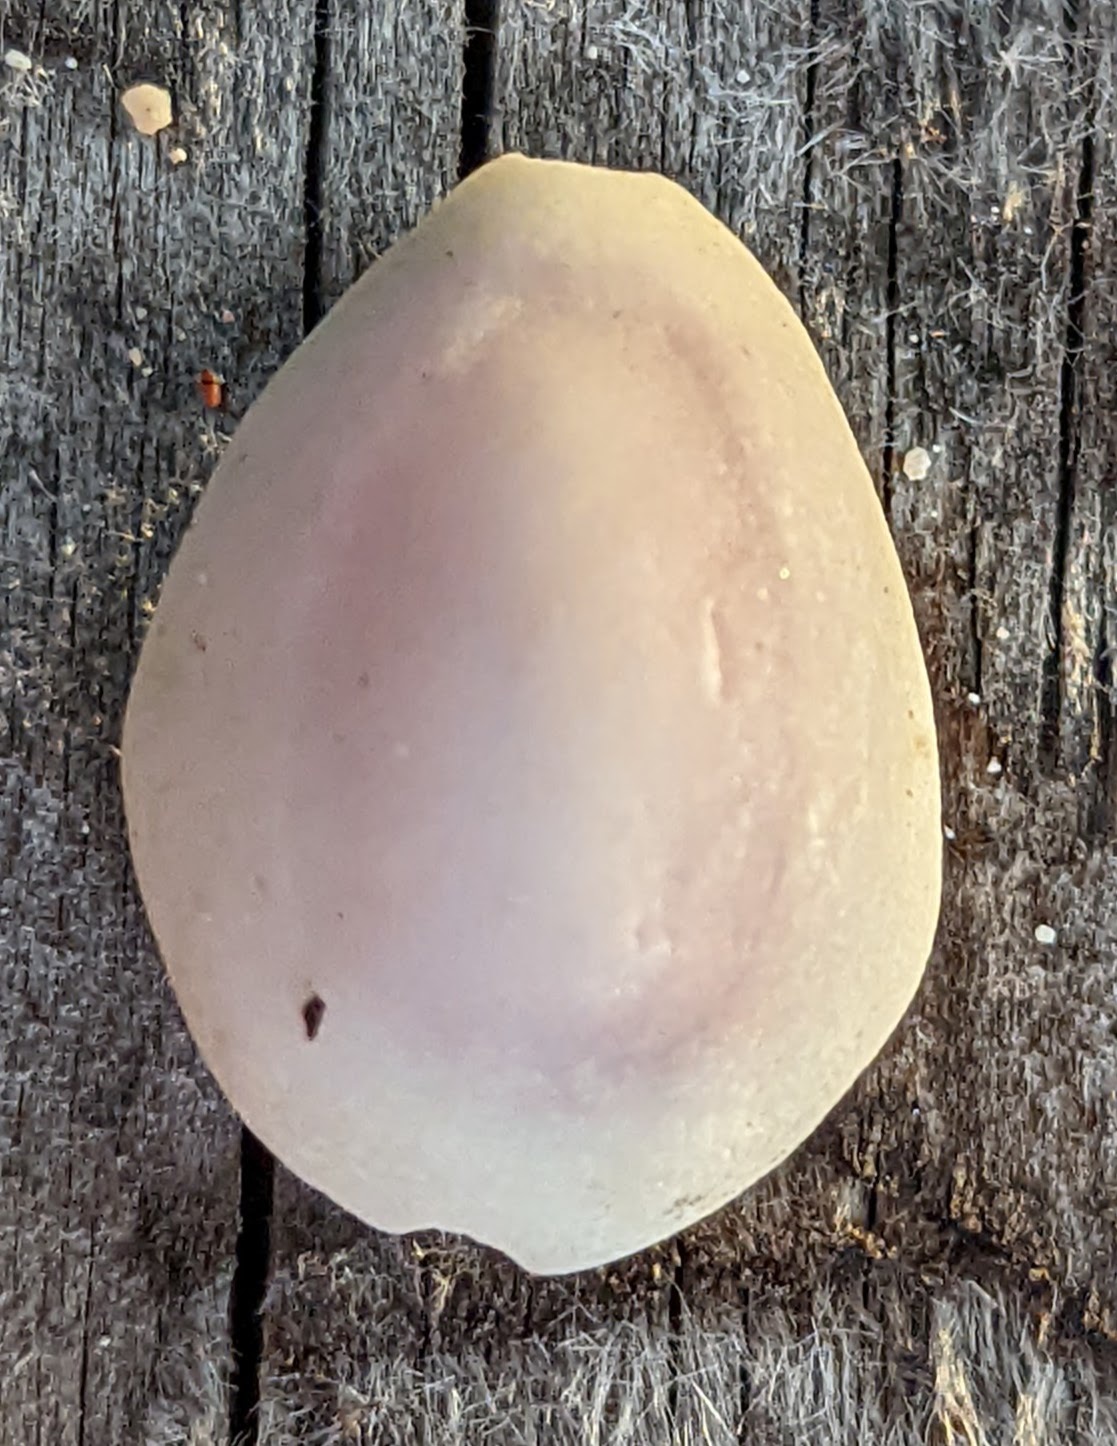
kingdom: Animalia
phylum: Mollusca
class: Gastropoda
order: Littorinimorpha
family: Cypraeidae
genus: Monetaria
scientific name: Monetaria annulus
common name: Ring cowrie
